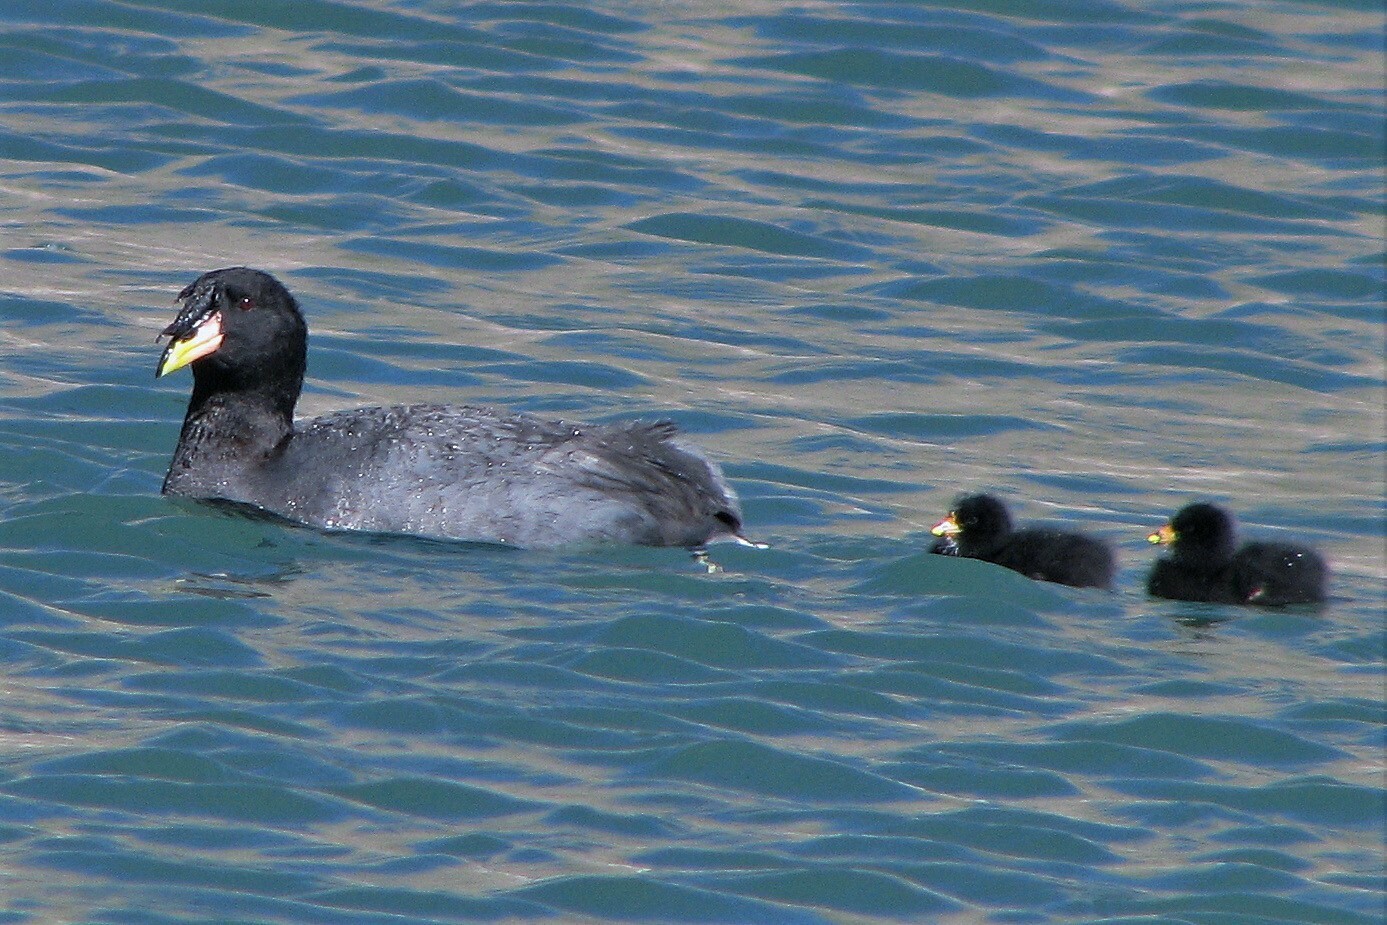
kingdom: Animalia
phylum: Chordata
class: Aves
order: Gruiformes
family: Rallidae
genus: Fulica
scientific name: Fulica cornuta
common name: Horned coot
